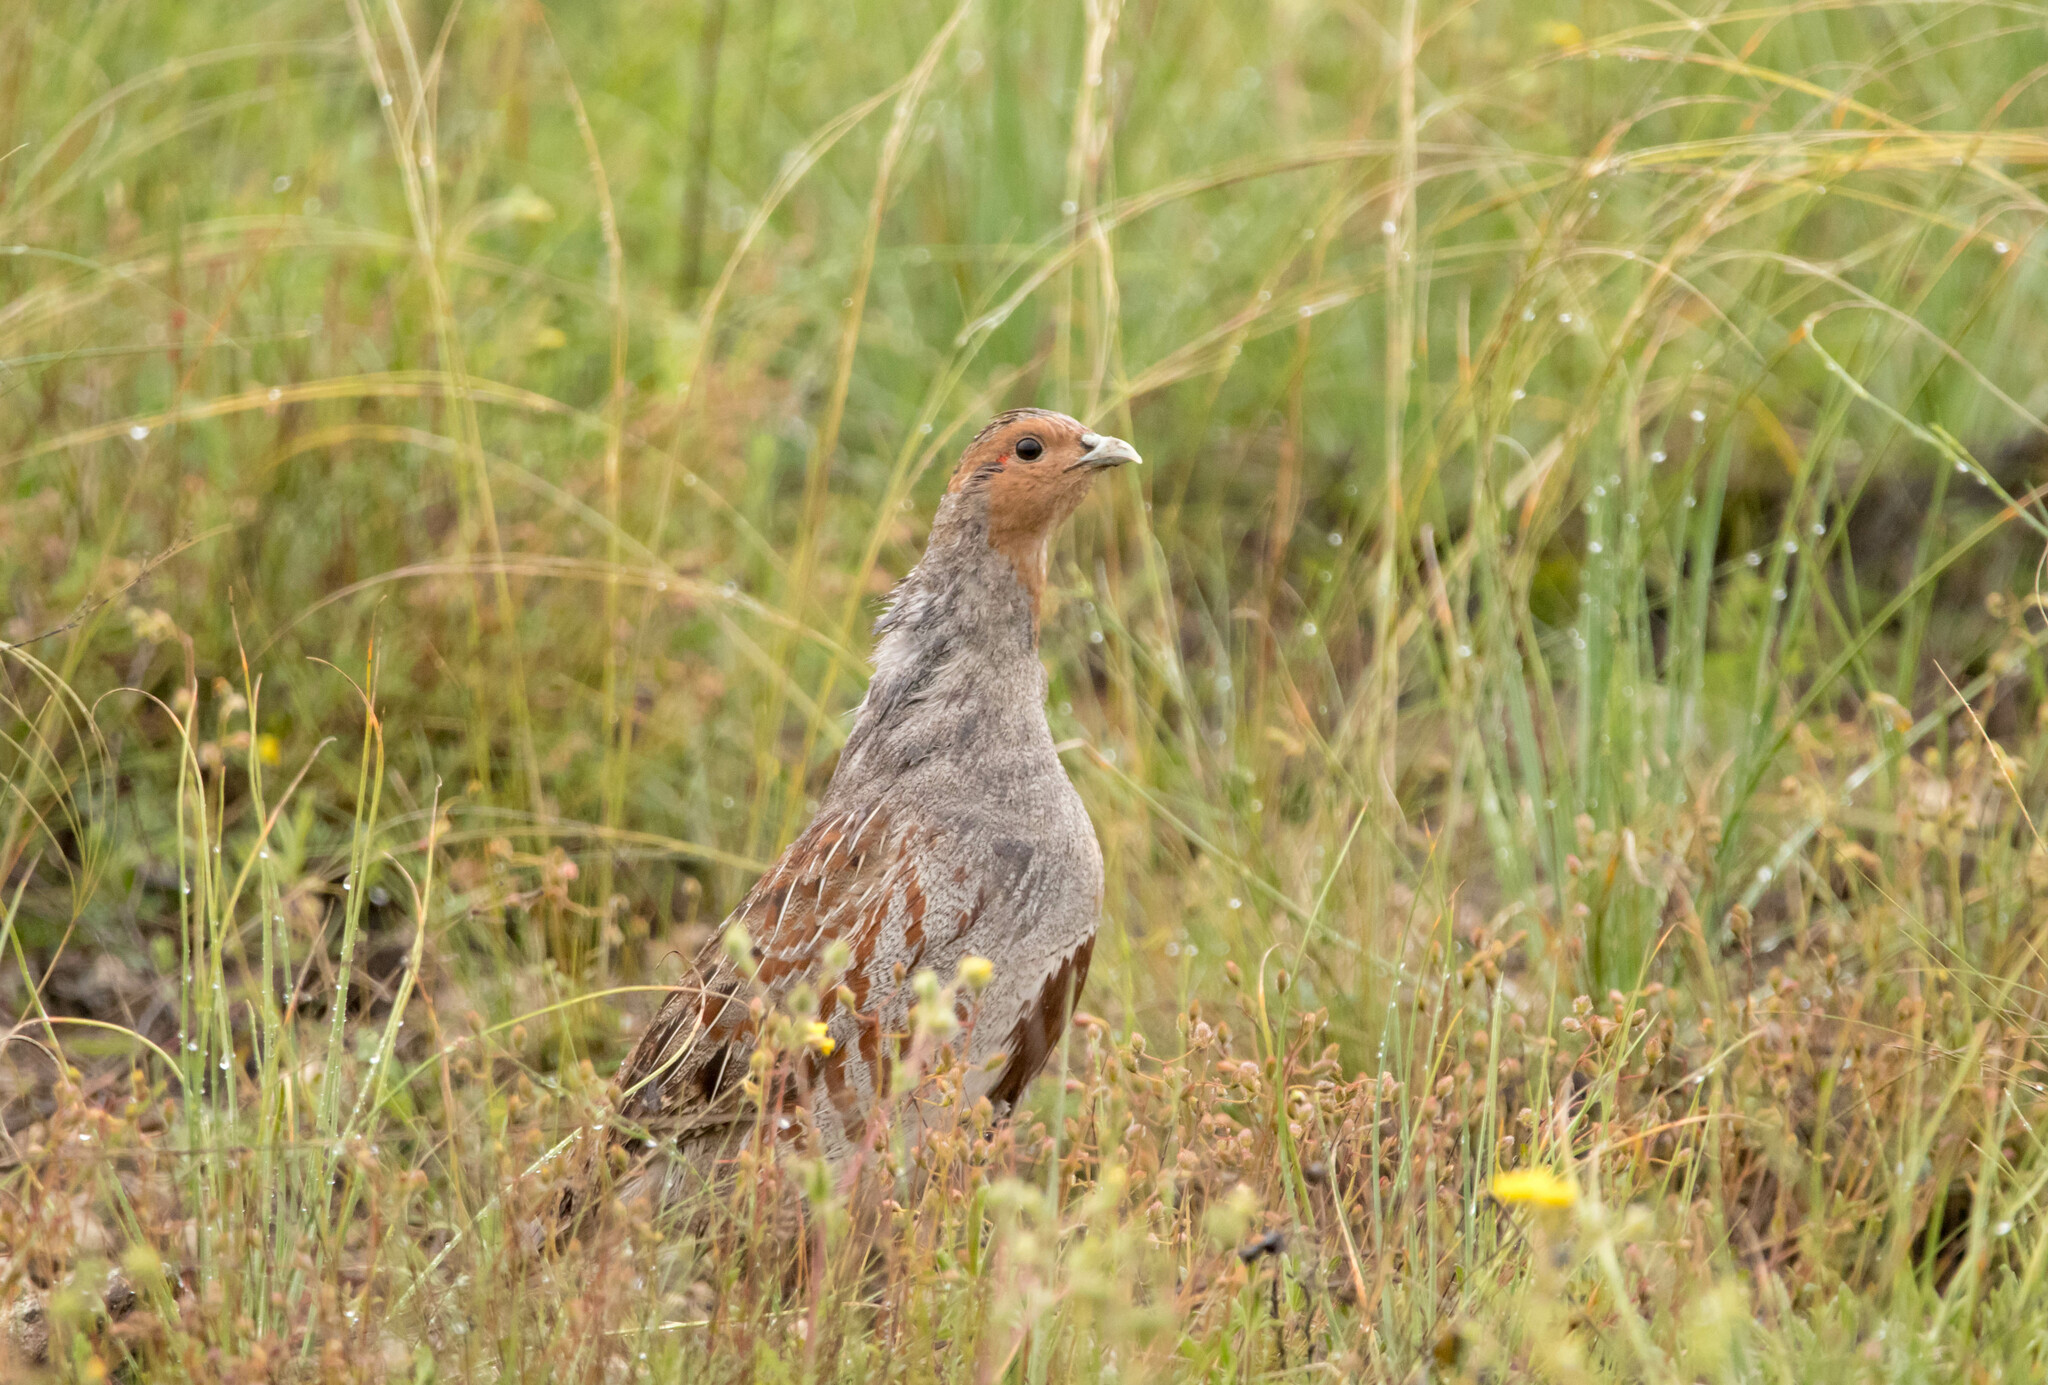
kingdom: Animalia
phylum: Chordata
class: Aves
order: Galliformes
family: Phasianidae
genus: Perdix
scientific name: Perdix perdix
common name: Grey partridge
